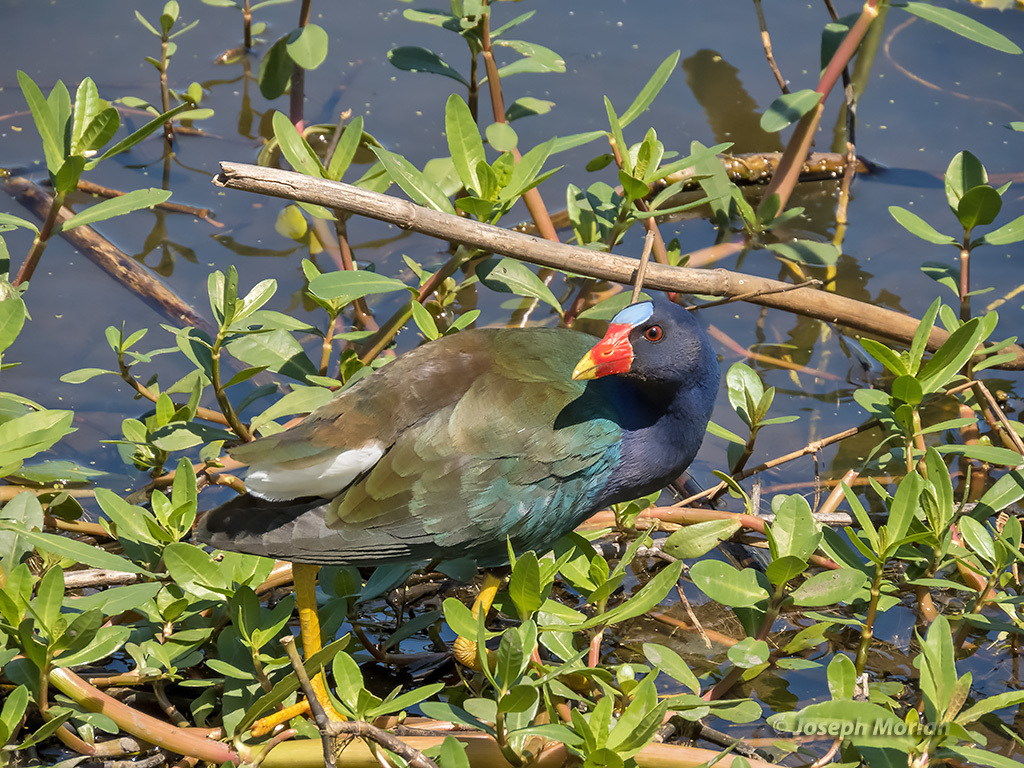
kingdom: Animalia
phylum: Chordata
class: Aves
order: Gruiformes
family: Rallidae
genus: Porphyrio
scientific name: Porphyrio martinica
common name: Purple gallinule
